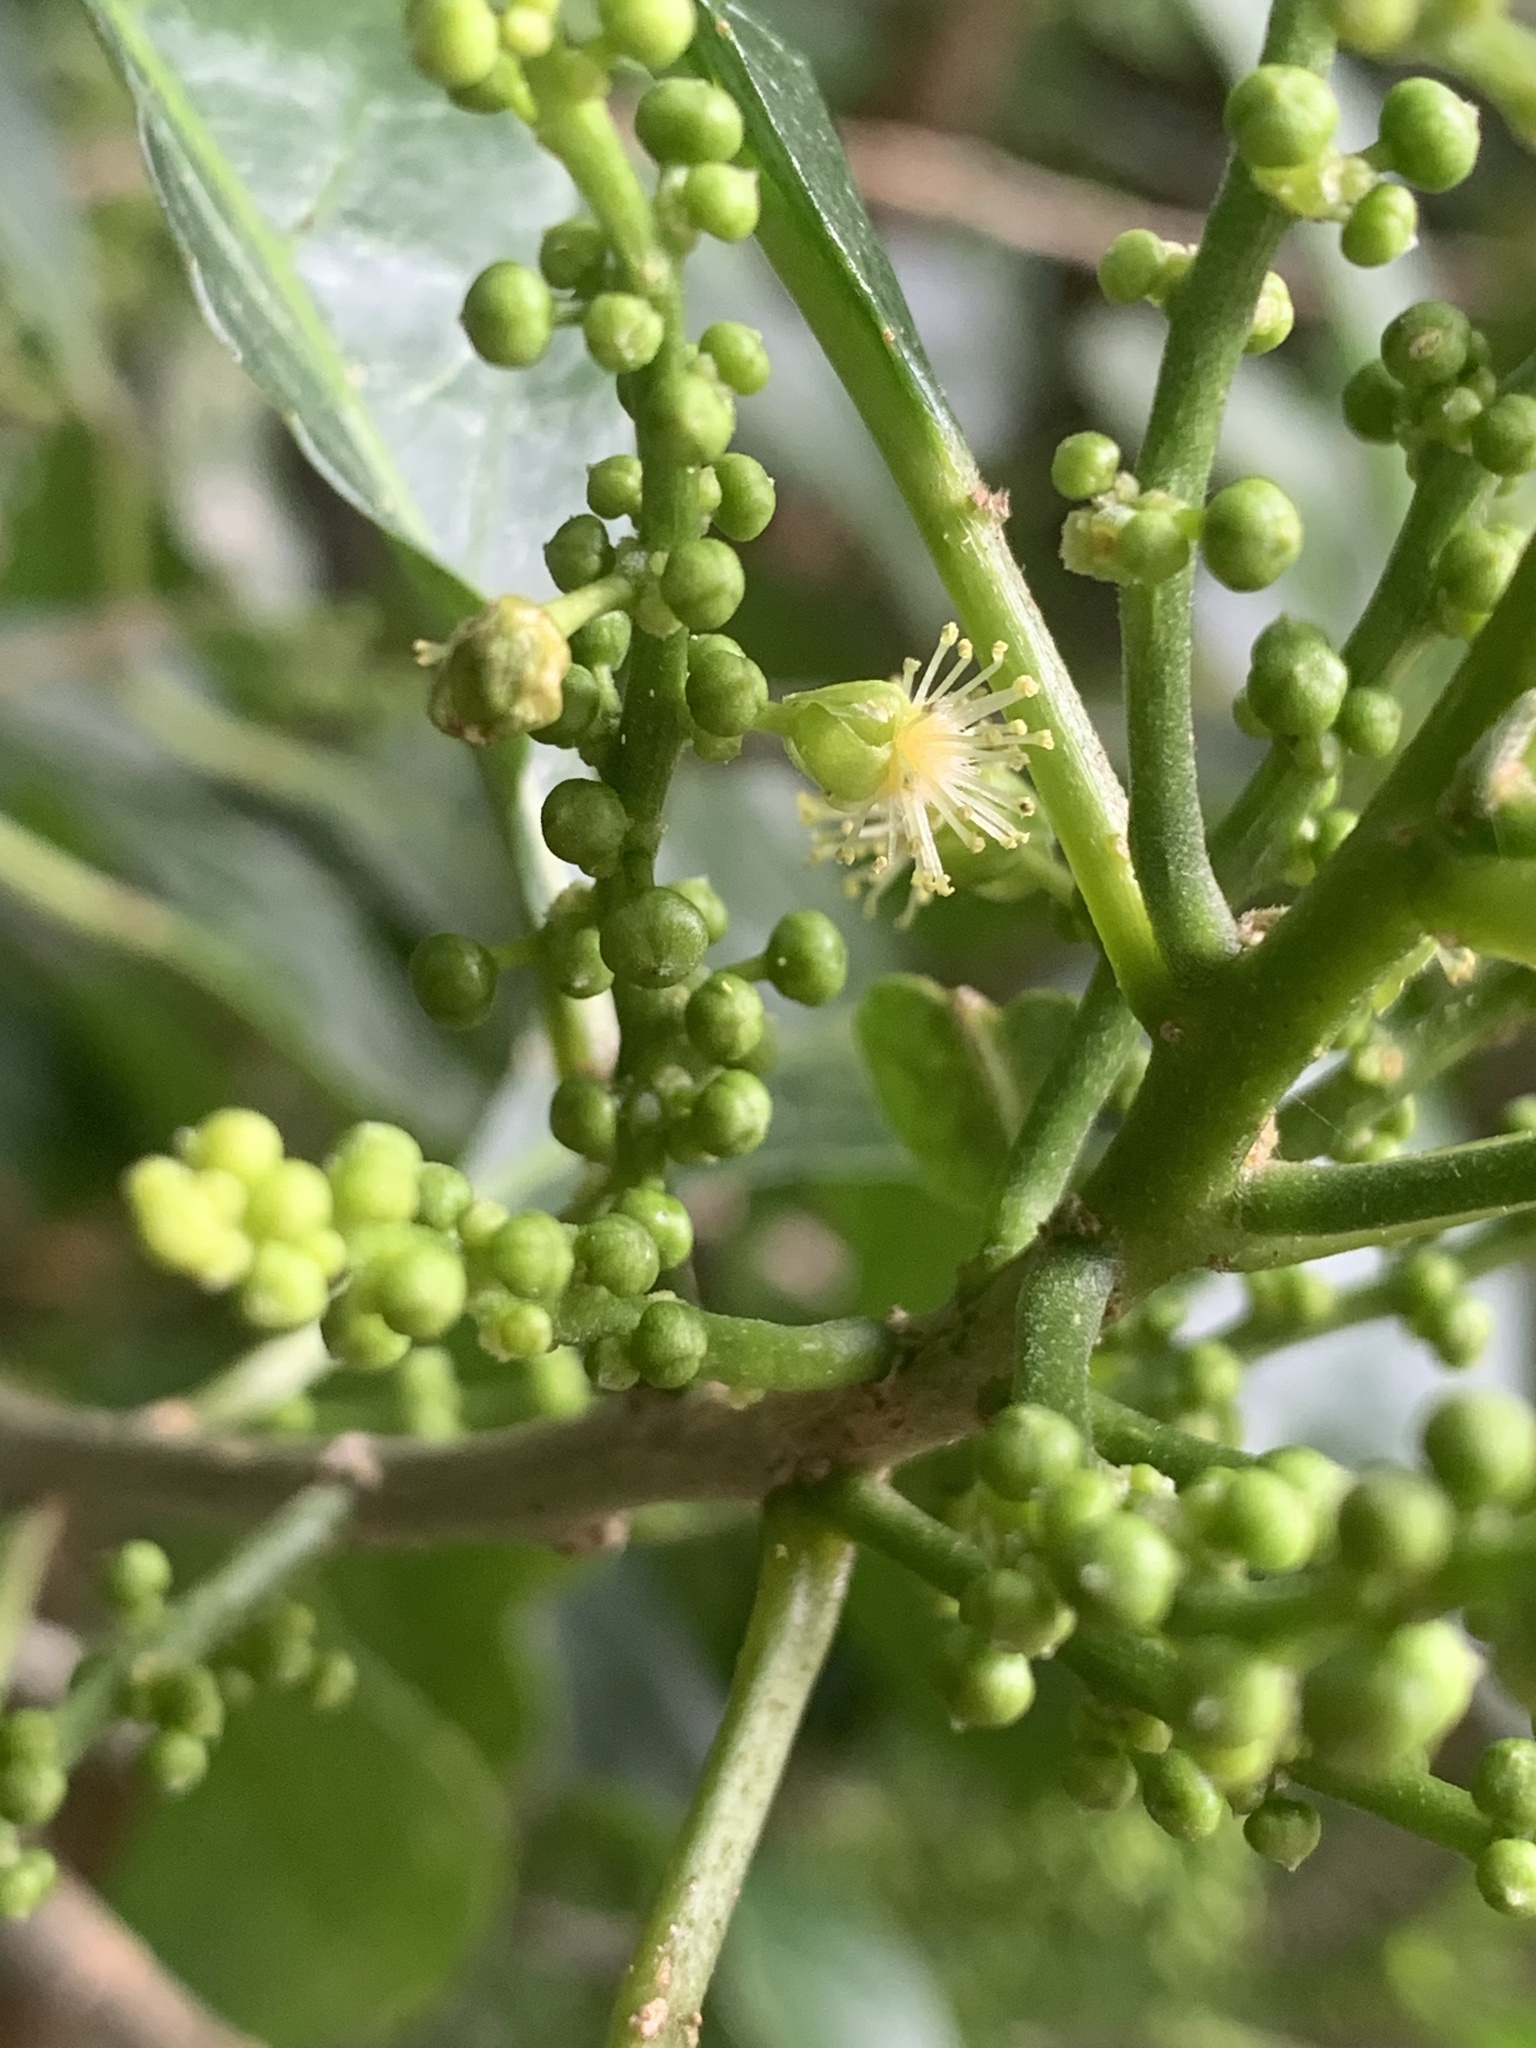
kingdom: Plantae
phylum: Tracheophyta
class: Magnoliopsida
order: Malpighiales
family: Euphorbiaceae
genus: Claoxylon
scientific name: Claoxylon australe
